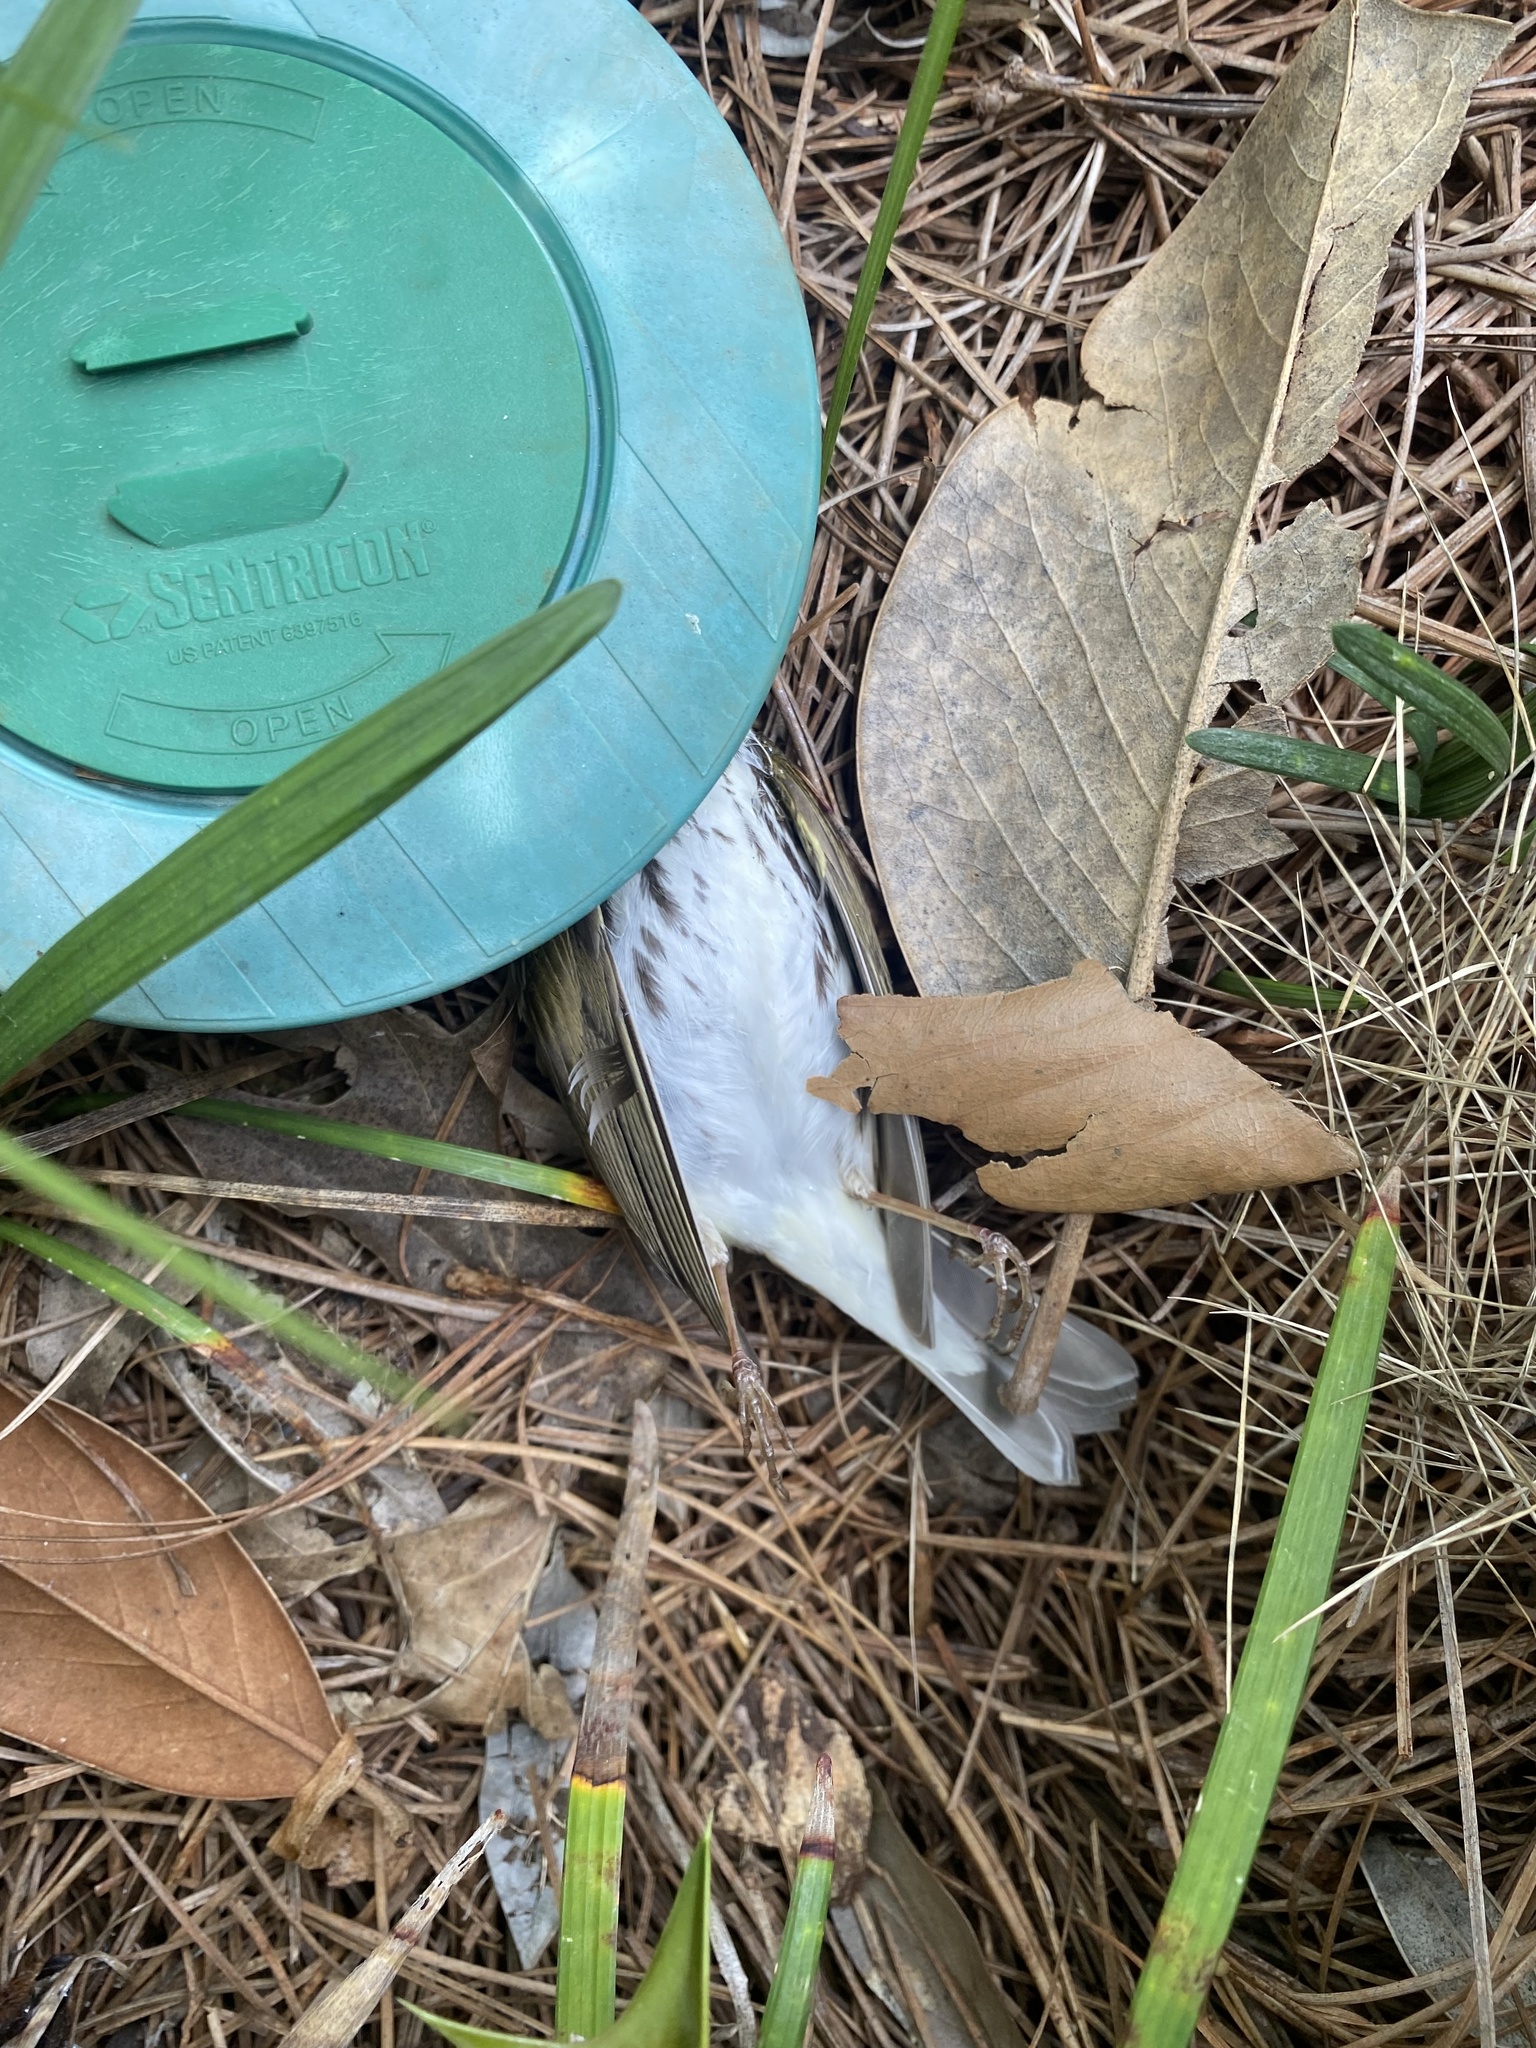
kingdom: Animalia
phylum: Chordata
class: Aves
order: Passeriformes
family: Parulidae
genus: Seiurus
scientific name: Seiurus aurocapilla
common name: Ovenbird
